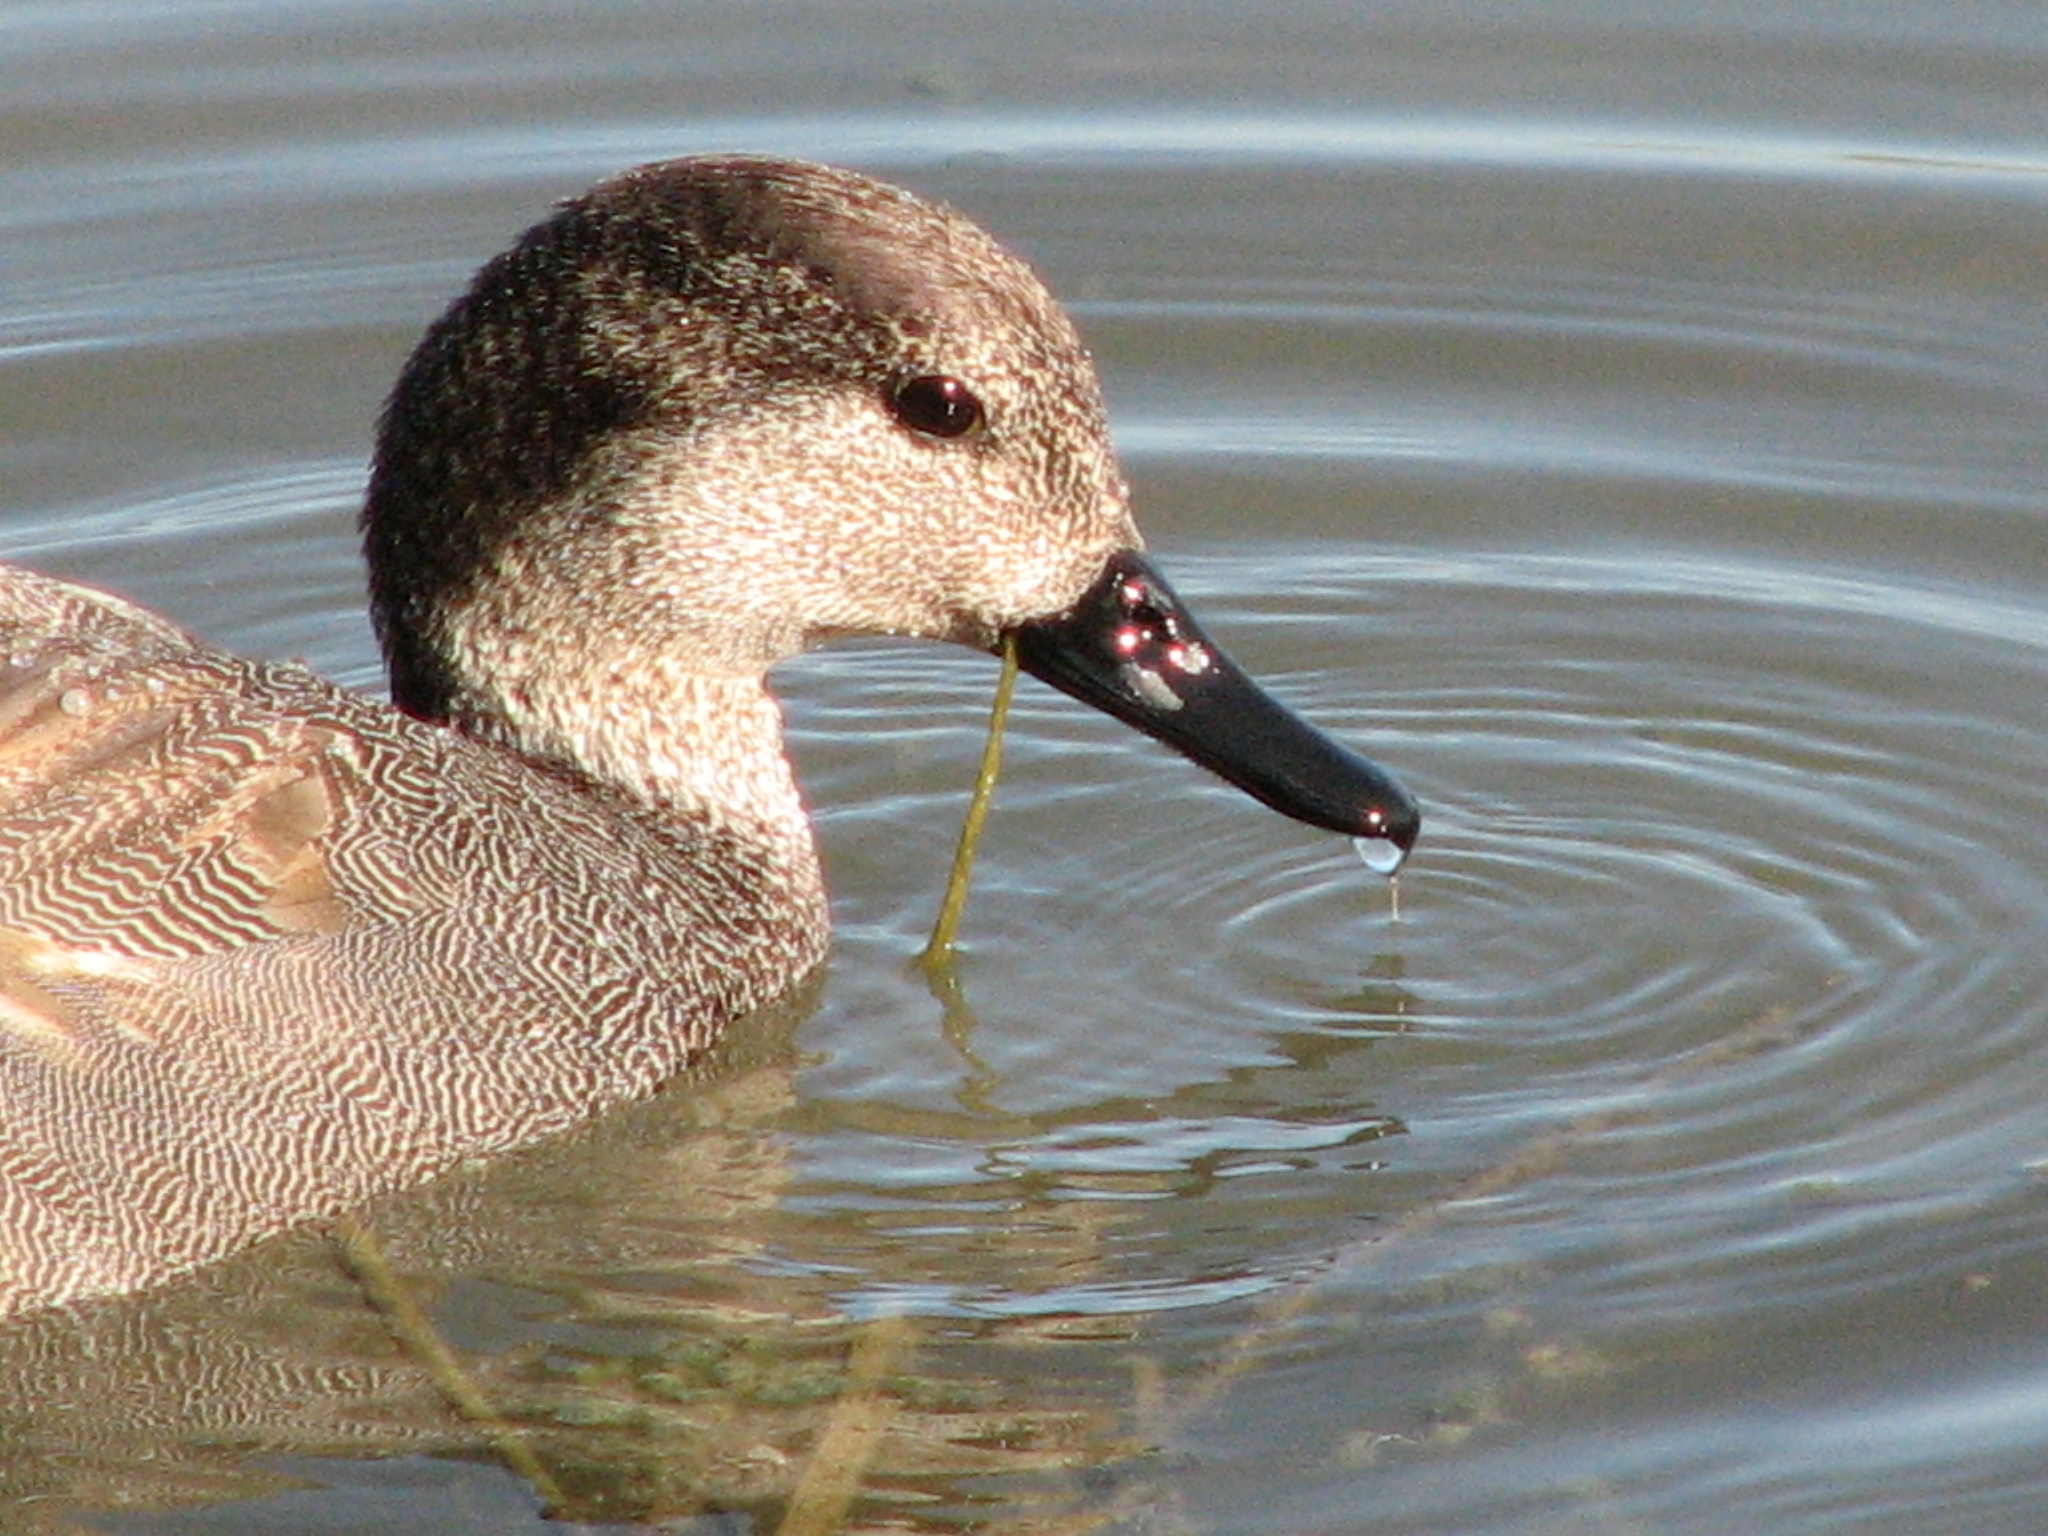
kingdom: Animalia
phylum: Chordata
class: Aves
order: Anseriformes
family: Anatidae
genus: Mareca
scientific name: Mareca strepera
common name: Gadwall
